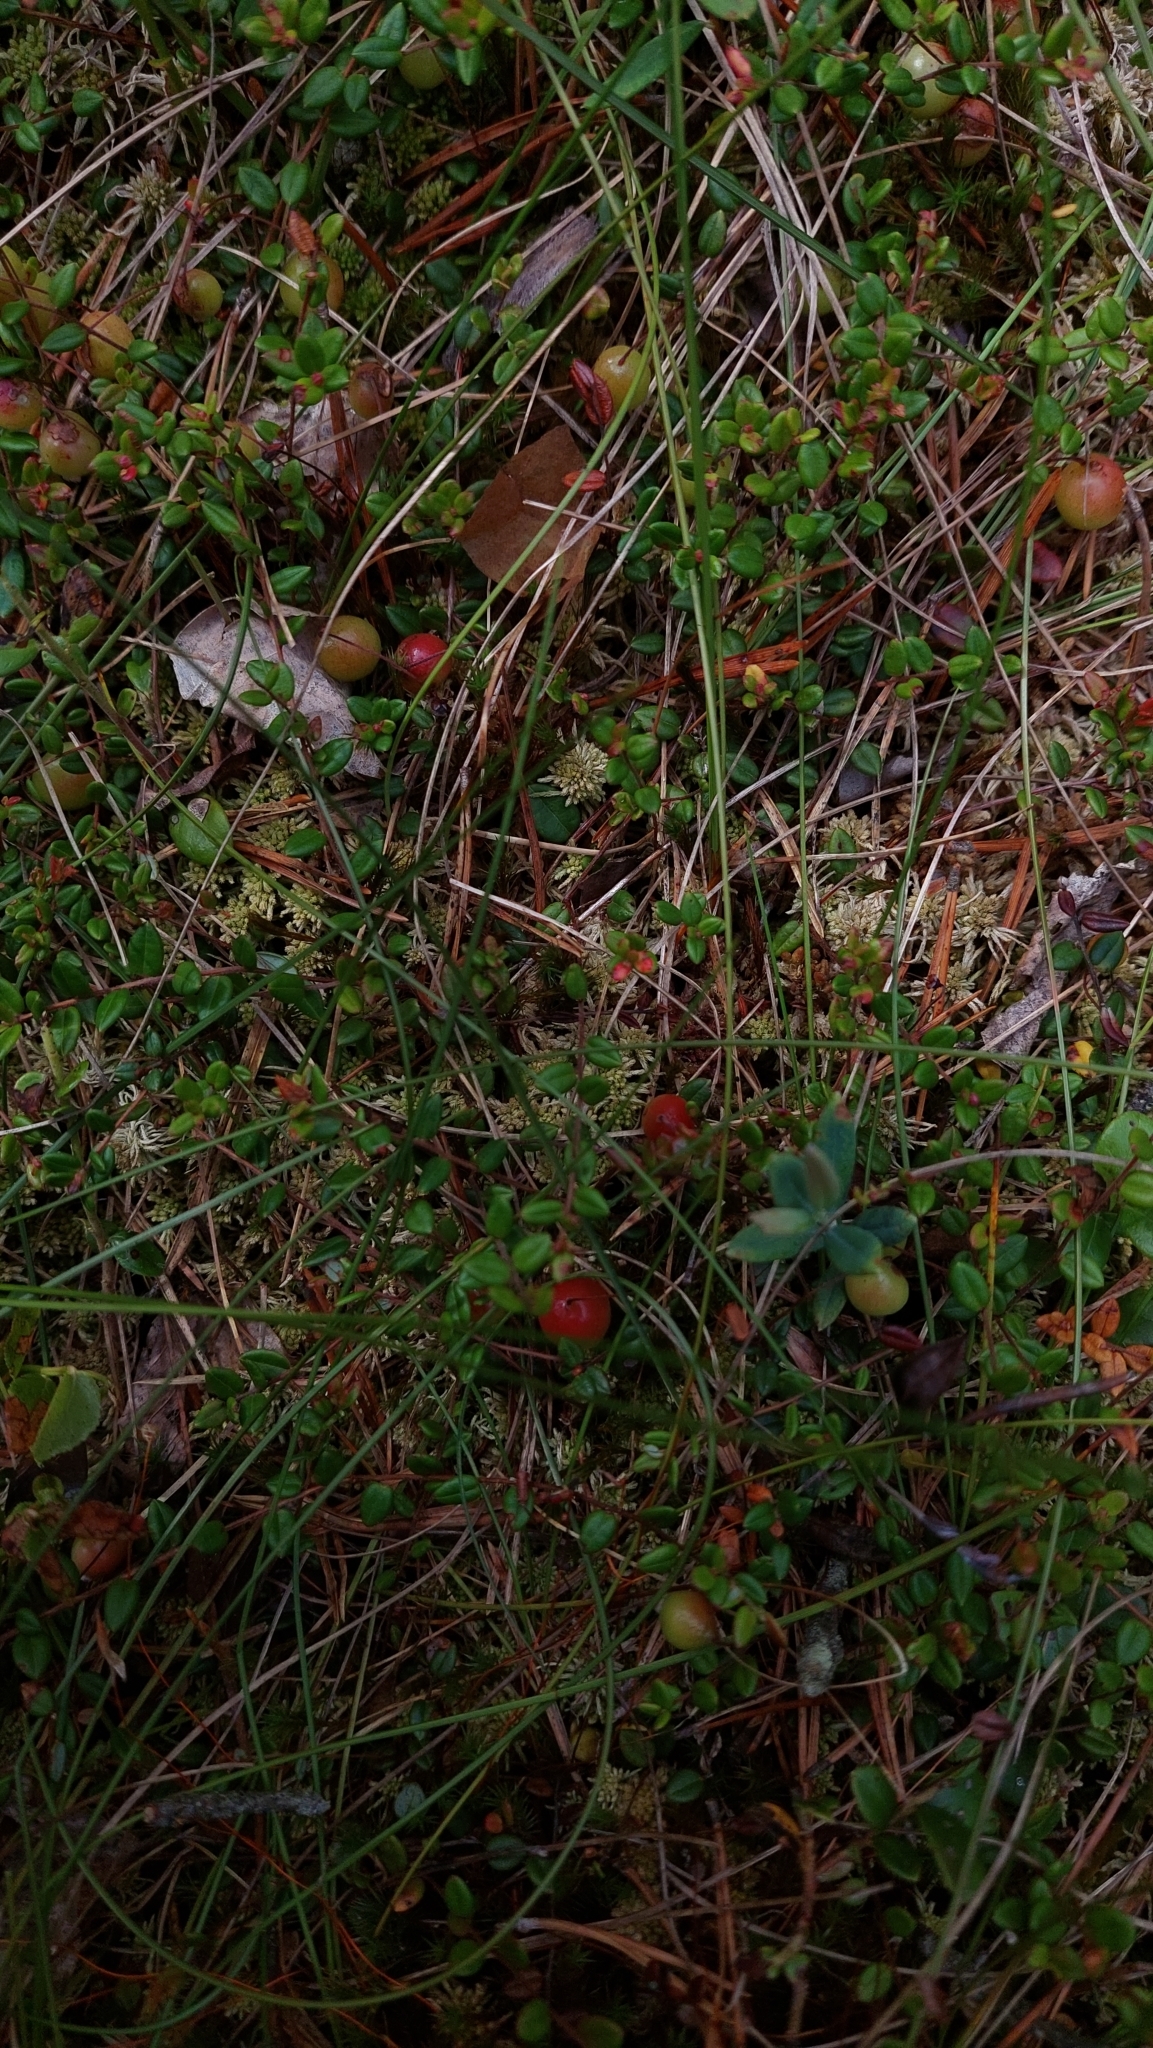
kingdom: Plantae
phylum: Tracheophyta
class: Magnoliopsida
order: Ericales
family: Ericaceae
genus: Vaccinium
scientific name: Vaccinium oxycoccos
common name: Cranberry
